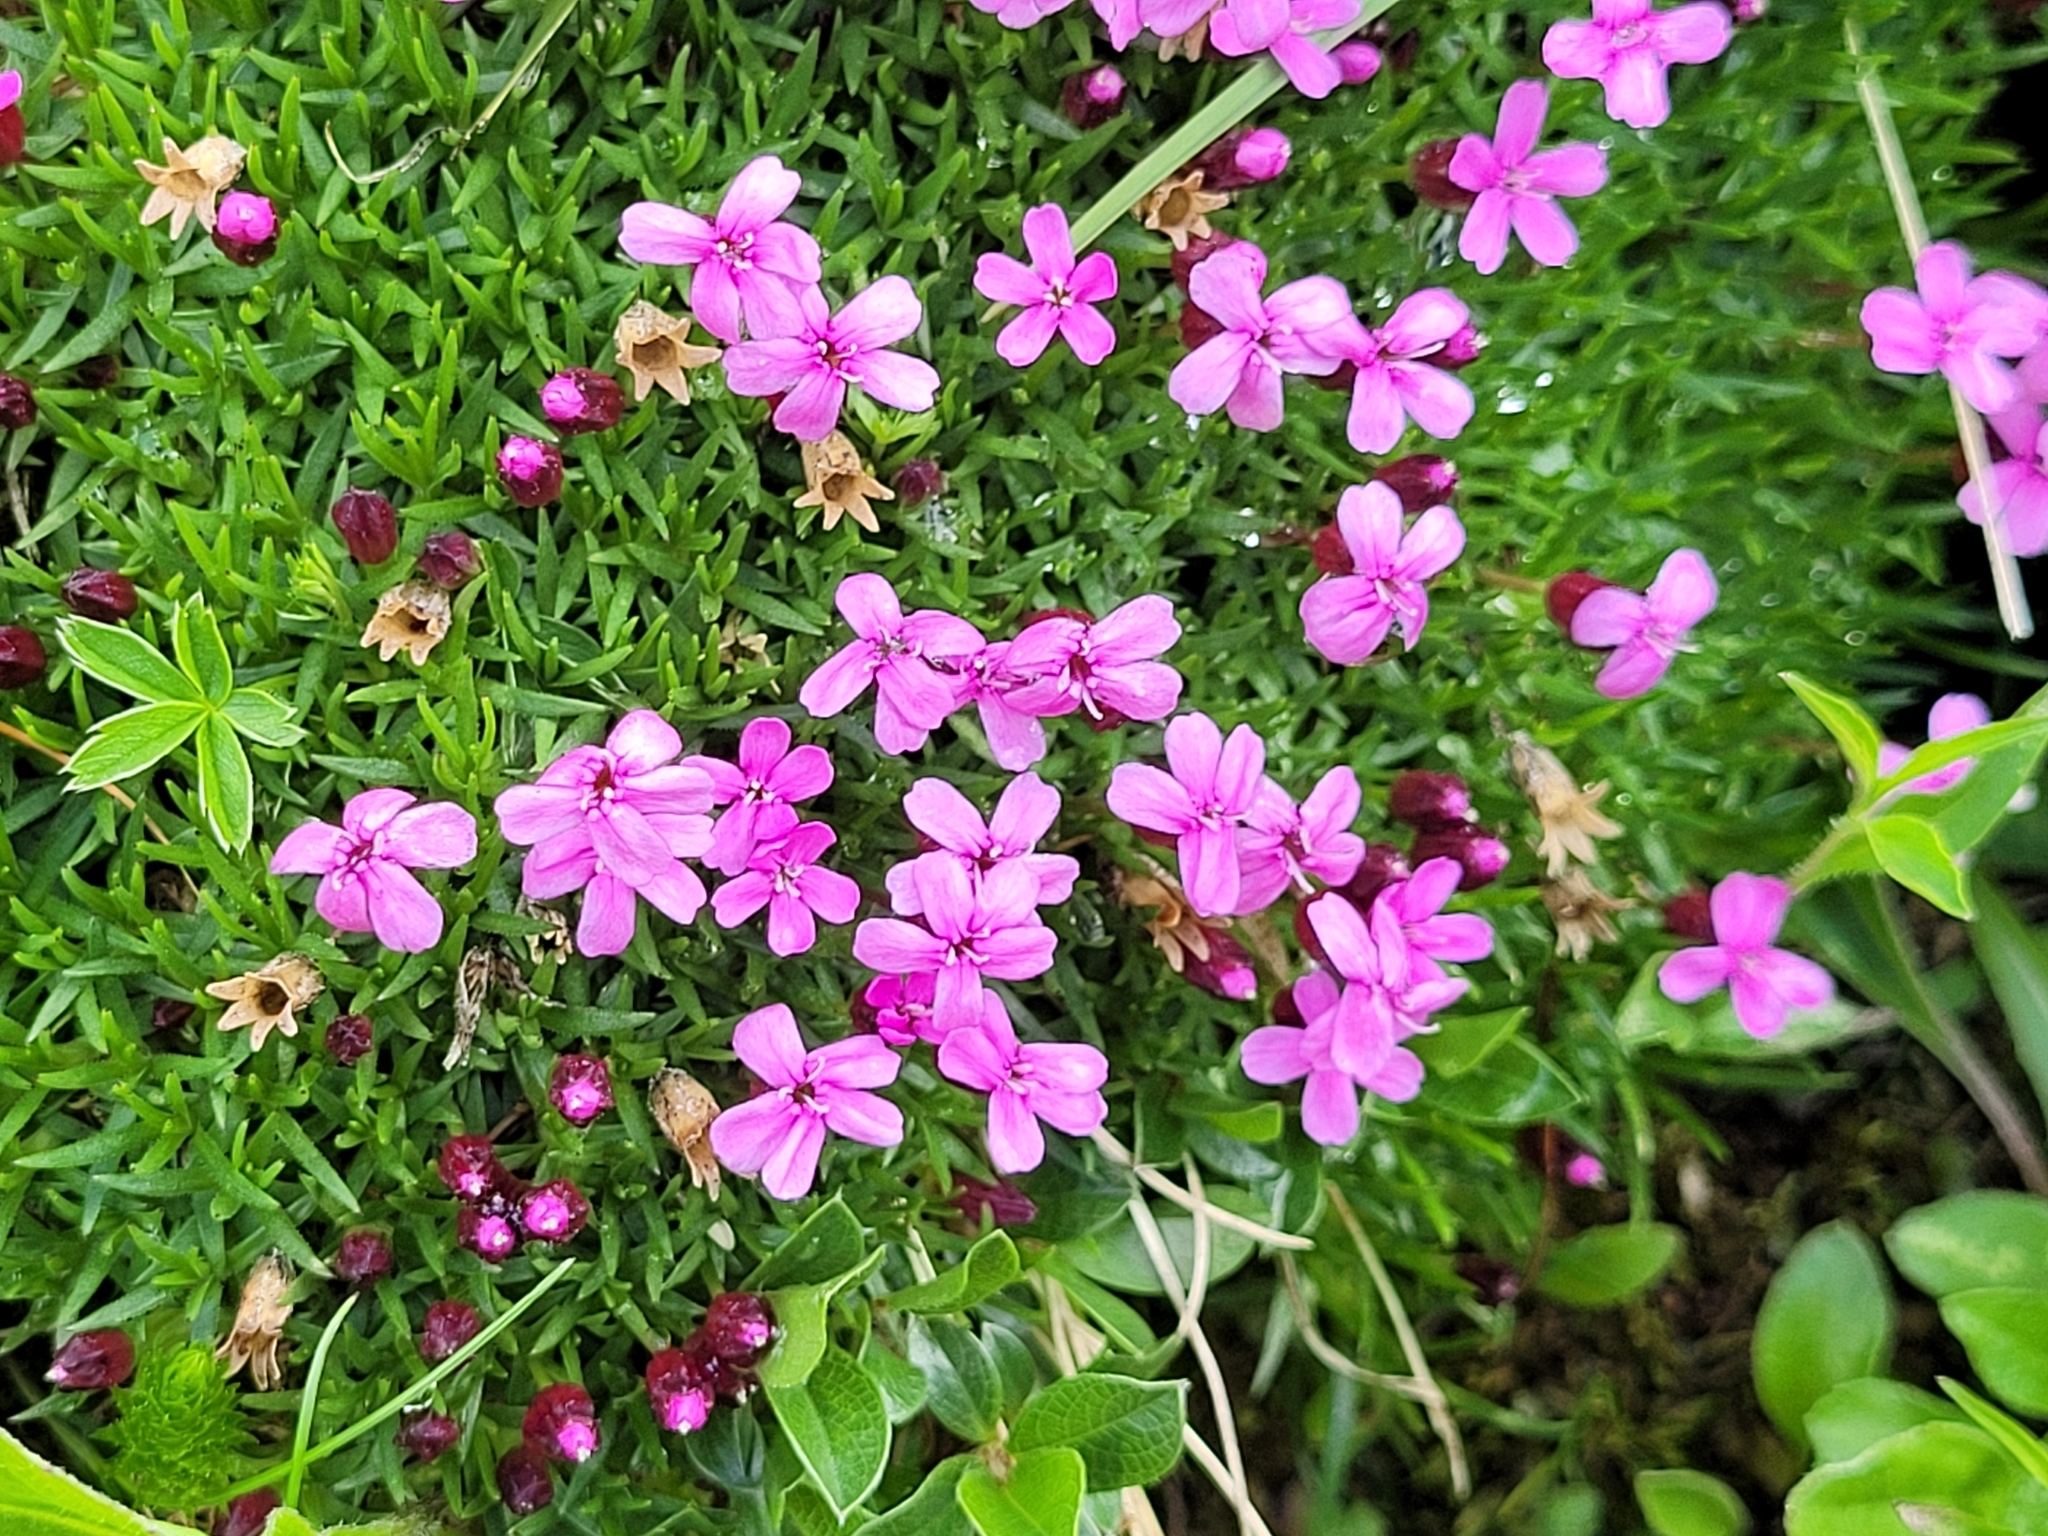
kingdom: Plantae
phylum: Tracheophyta
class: Magnoliopsida
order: Caryophyllales
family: Caryophyllaceae
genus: Silene
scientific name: Silene acaulis
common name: Moss campion
